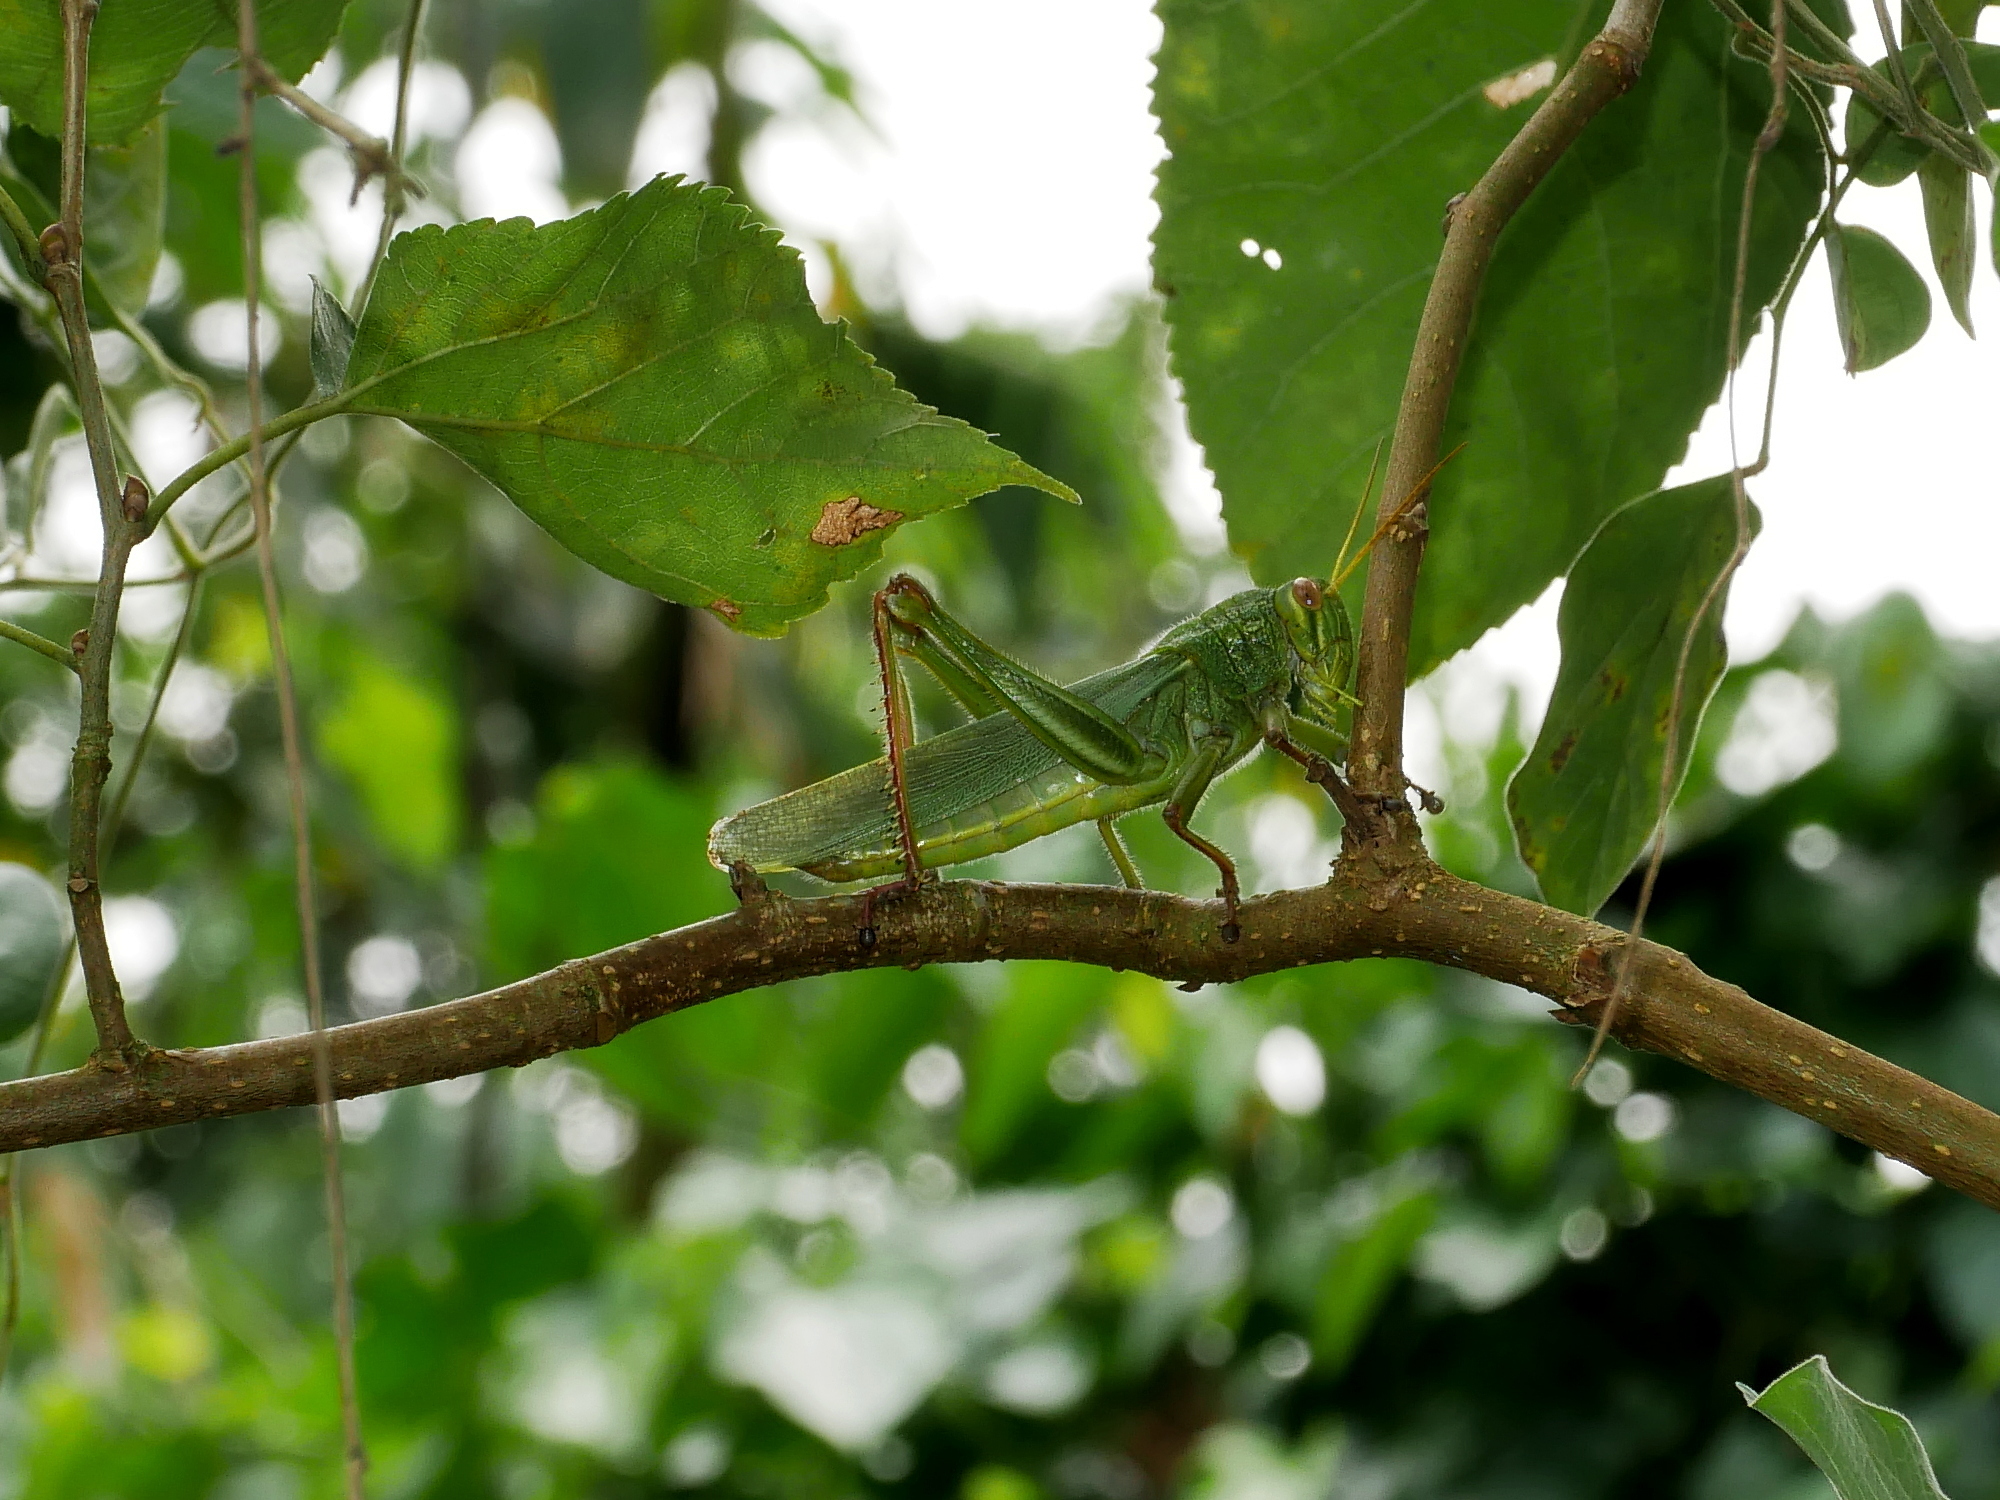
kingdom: Animalia
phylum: Arthropoda
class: Insecta
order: Orthoptera
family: Acrididae
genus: Chondracris
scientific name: Chondracris rosea
